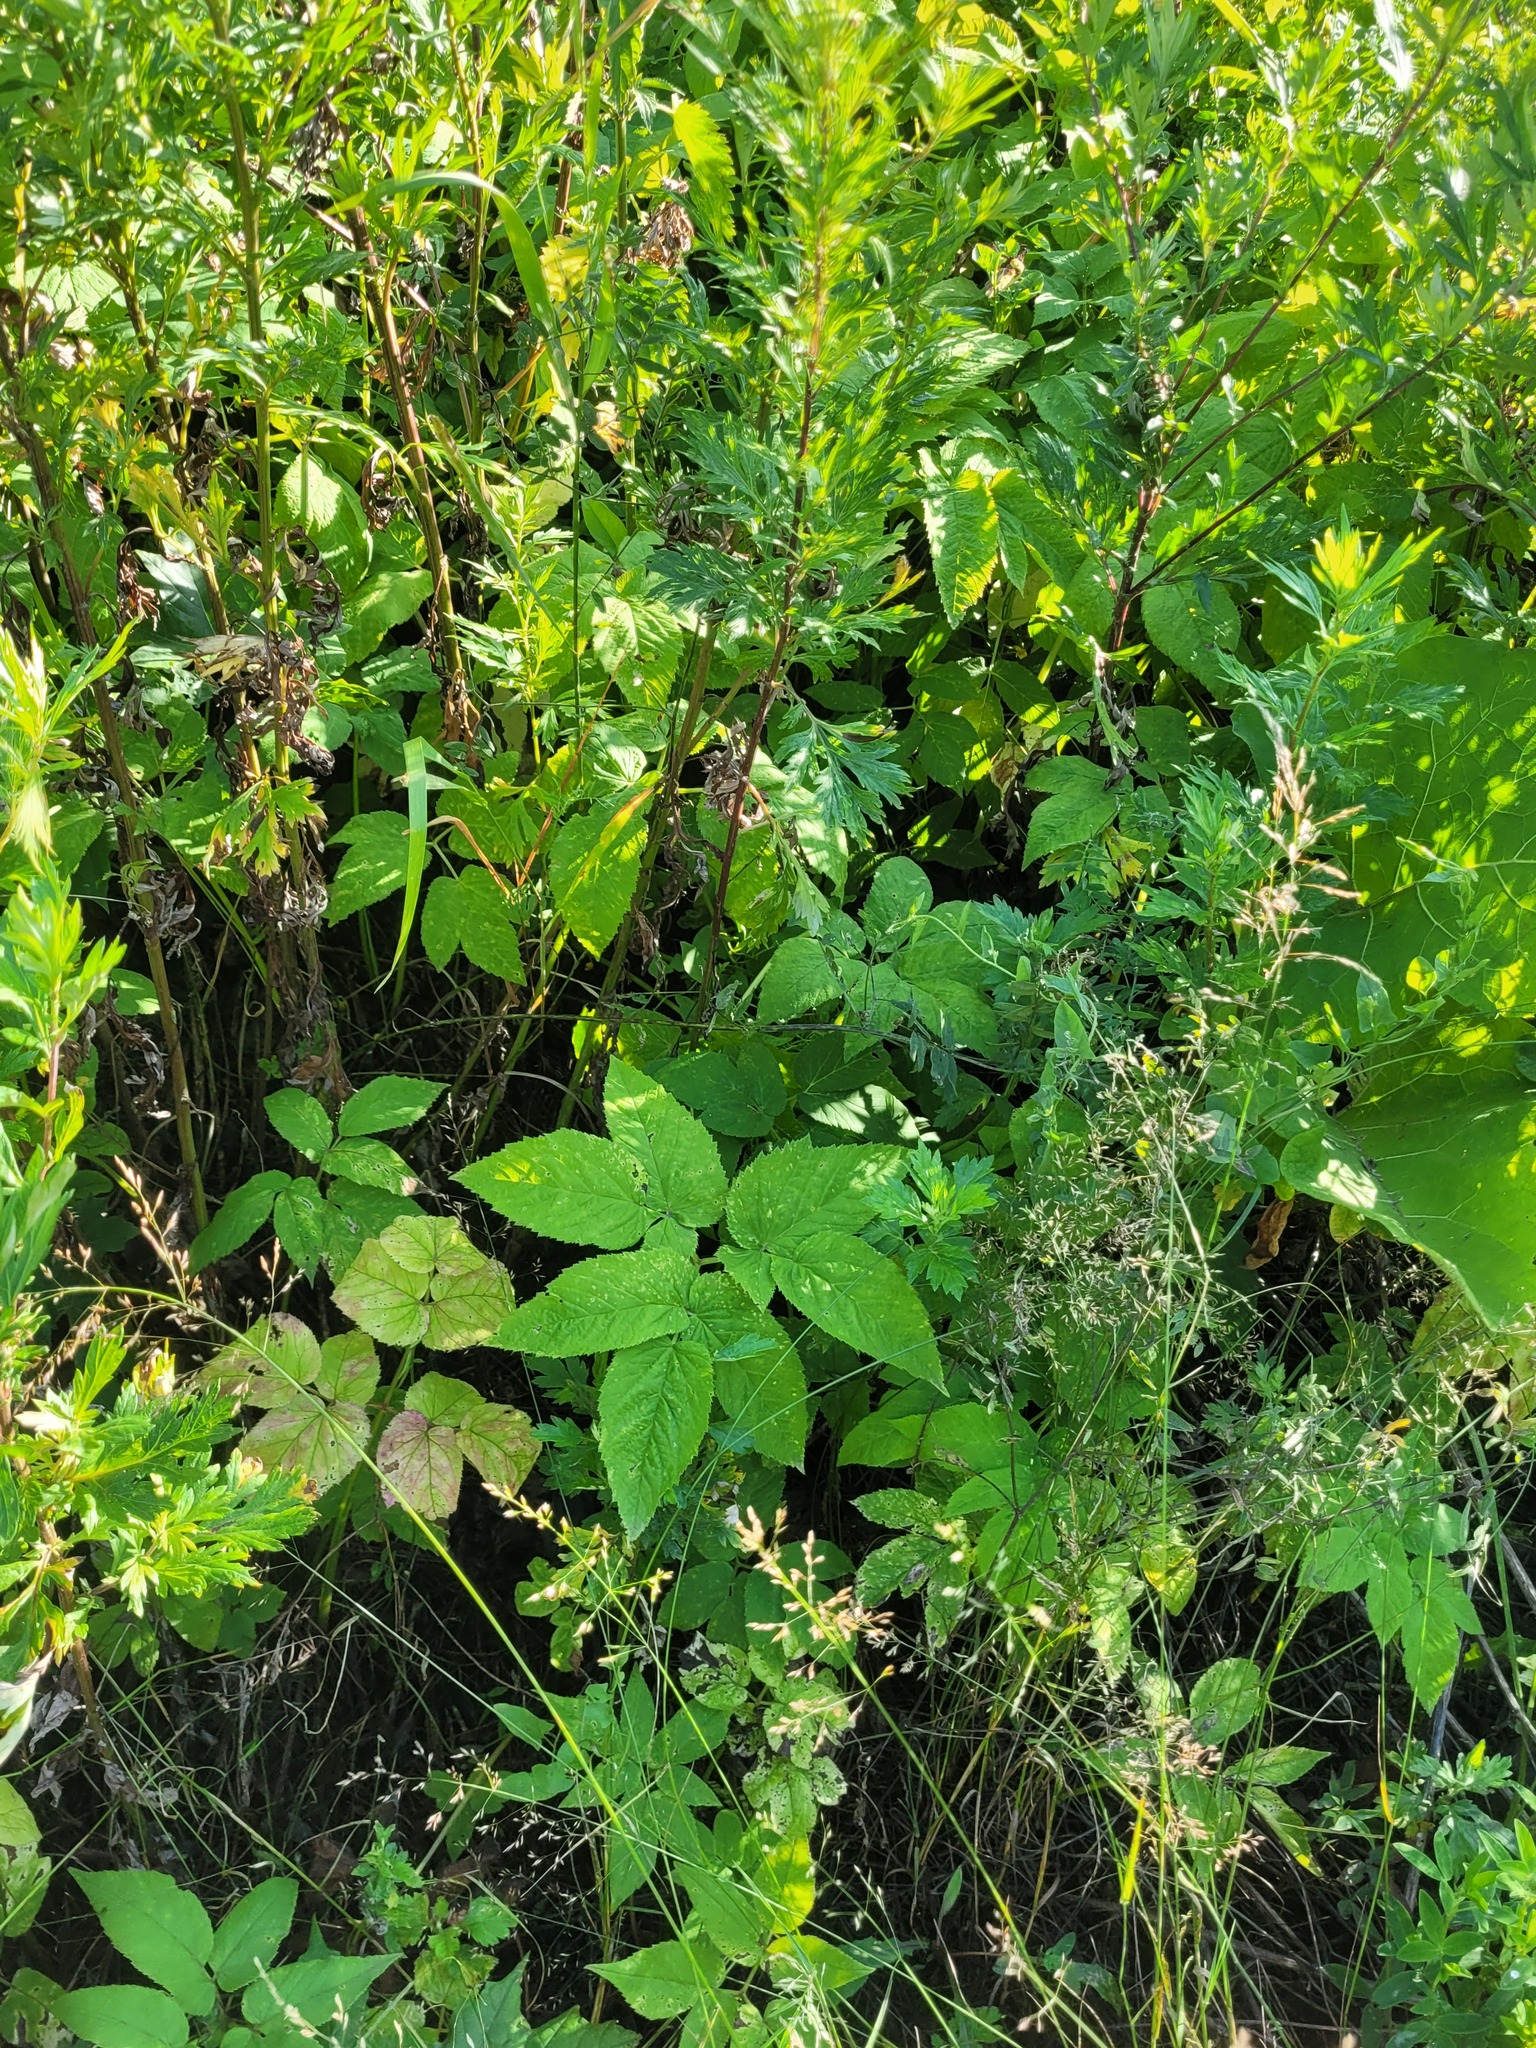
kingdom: Plantae
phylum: Tracheophyta
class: Magnoliopsida
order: Apiales
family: Apiaceae
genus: Aegopodium
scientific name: Aegopodium podagraria
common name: Ground-elder
